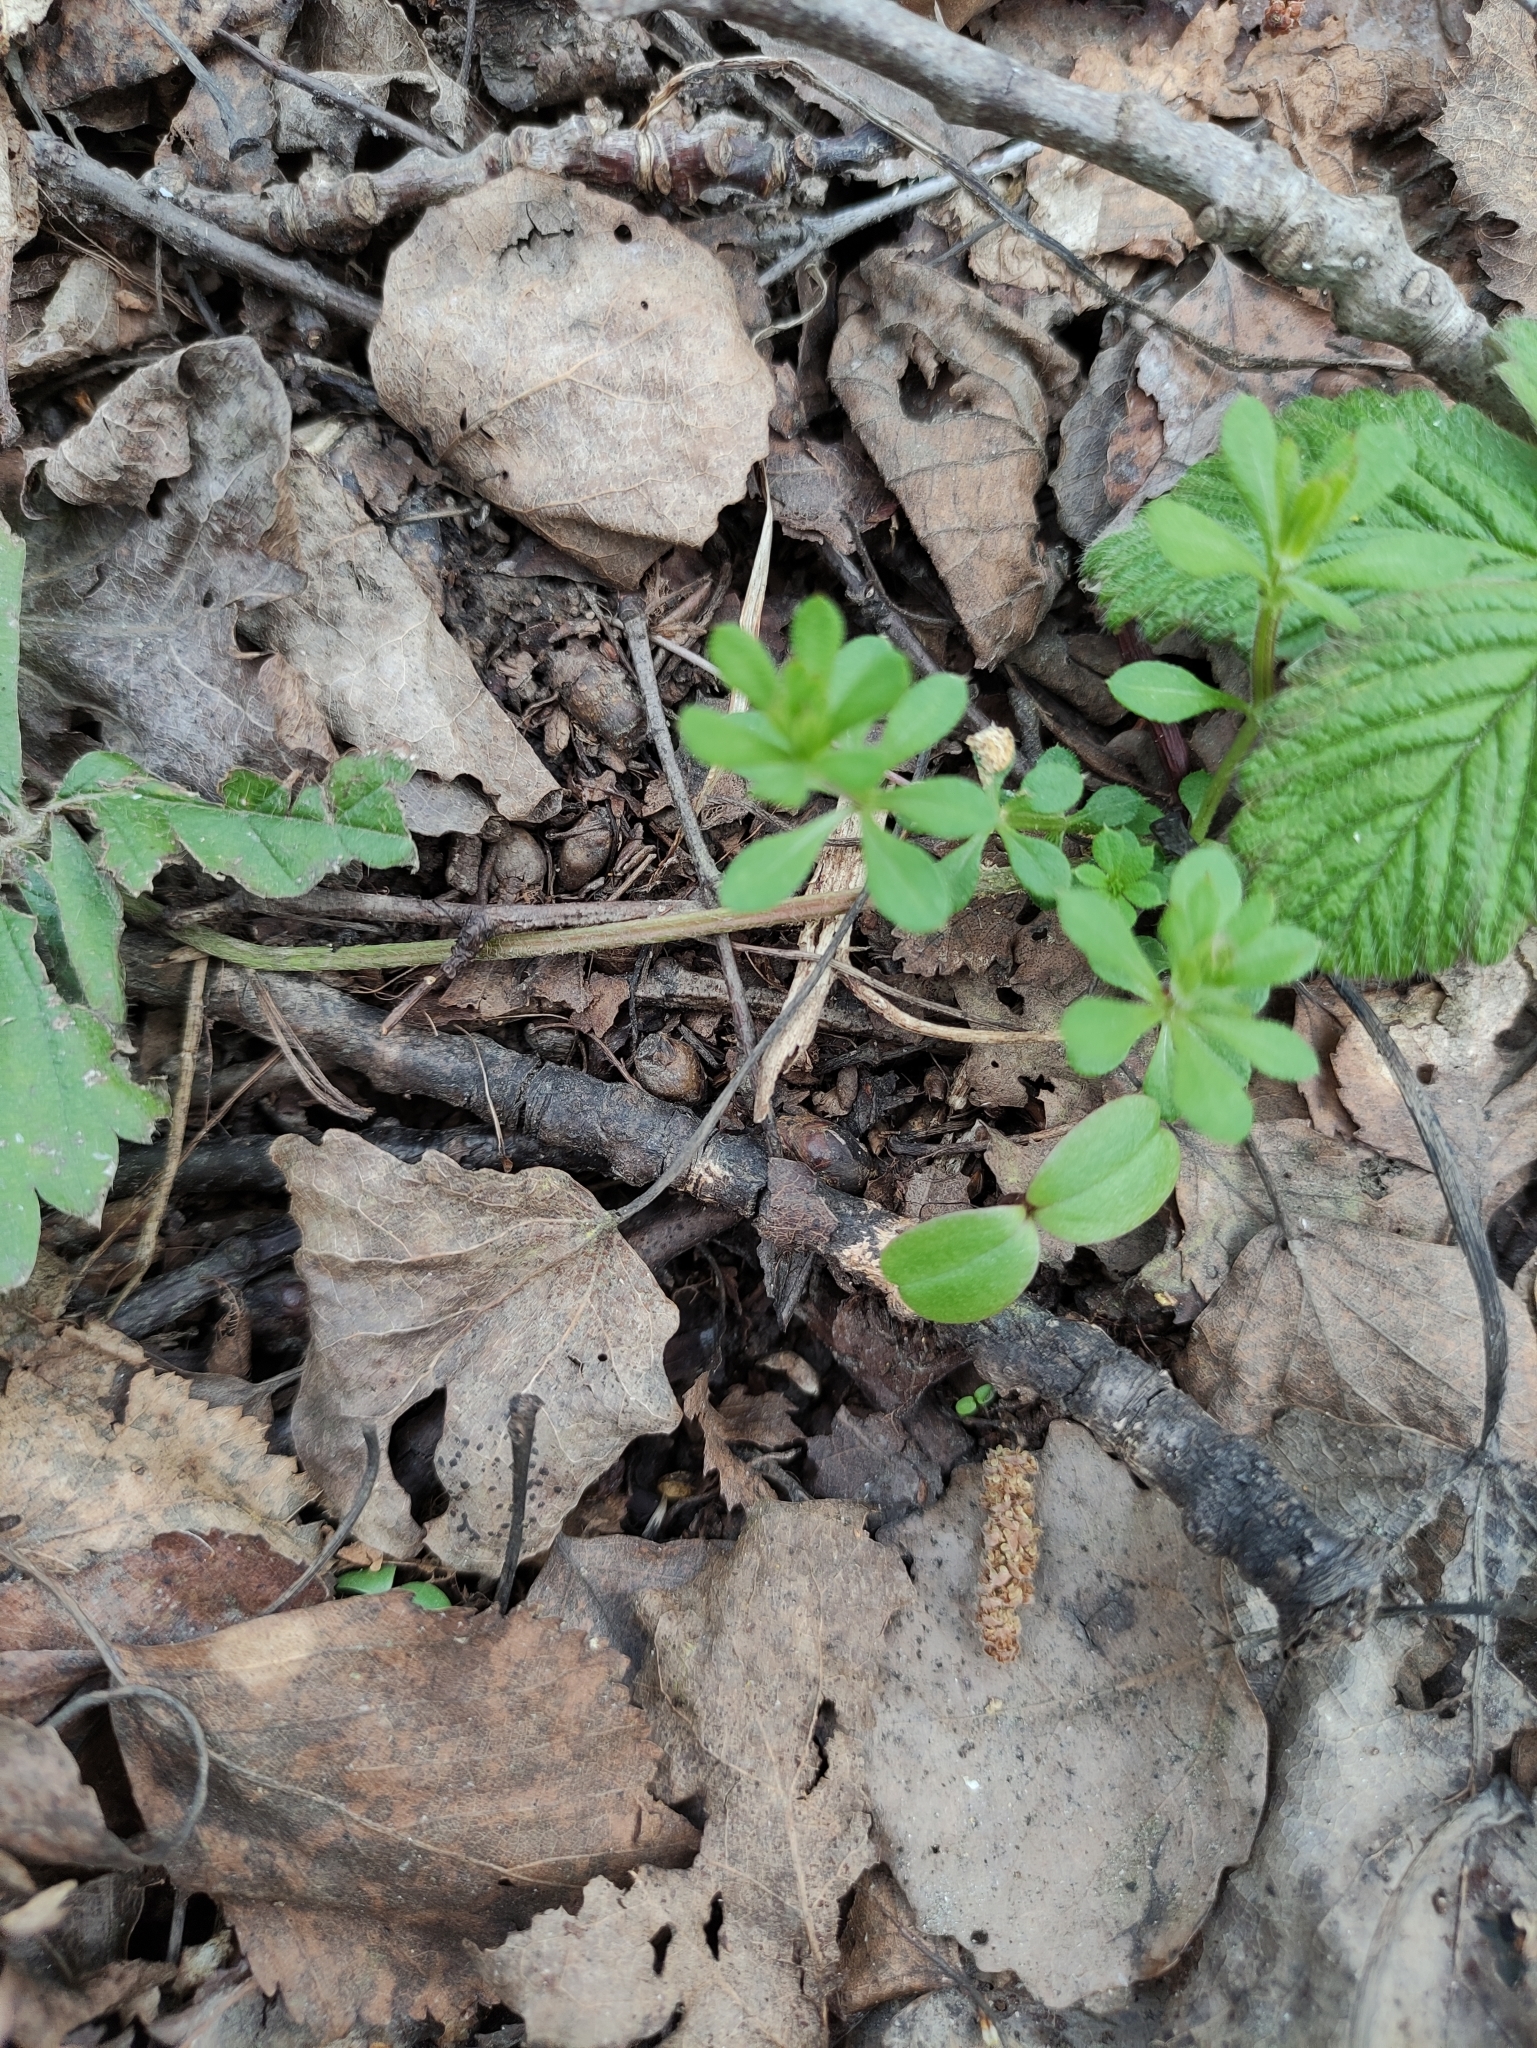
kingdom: Plantae
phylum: Tracheophyta
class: Magnoliopsida
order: Gentianales
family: Rubiaceae
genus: Galium
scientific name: Galium aparine
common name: Cleavers
